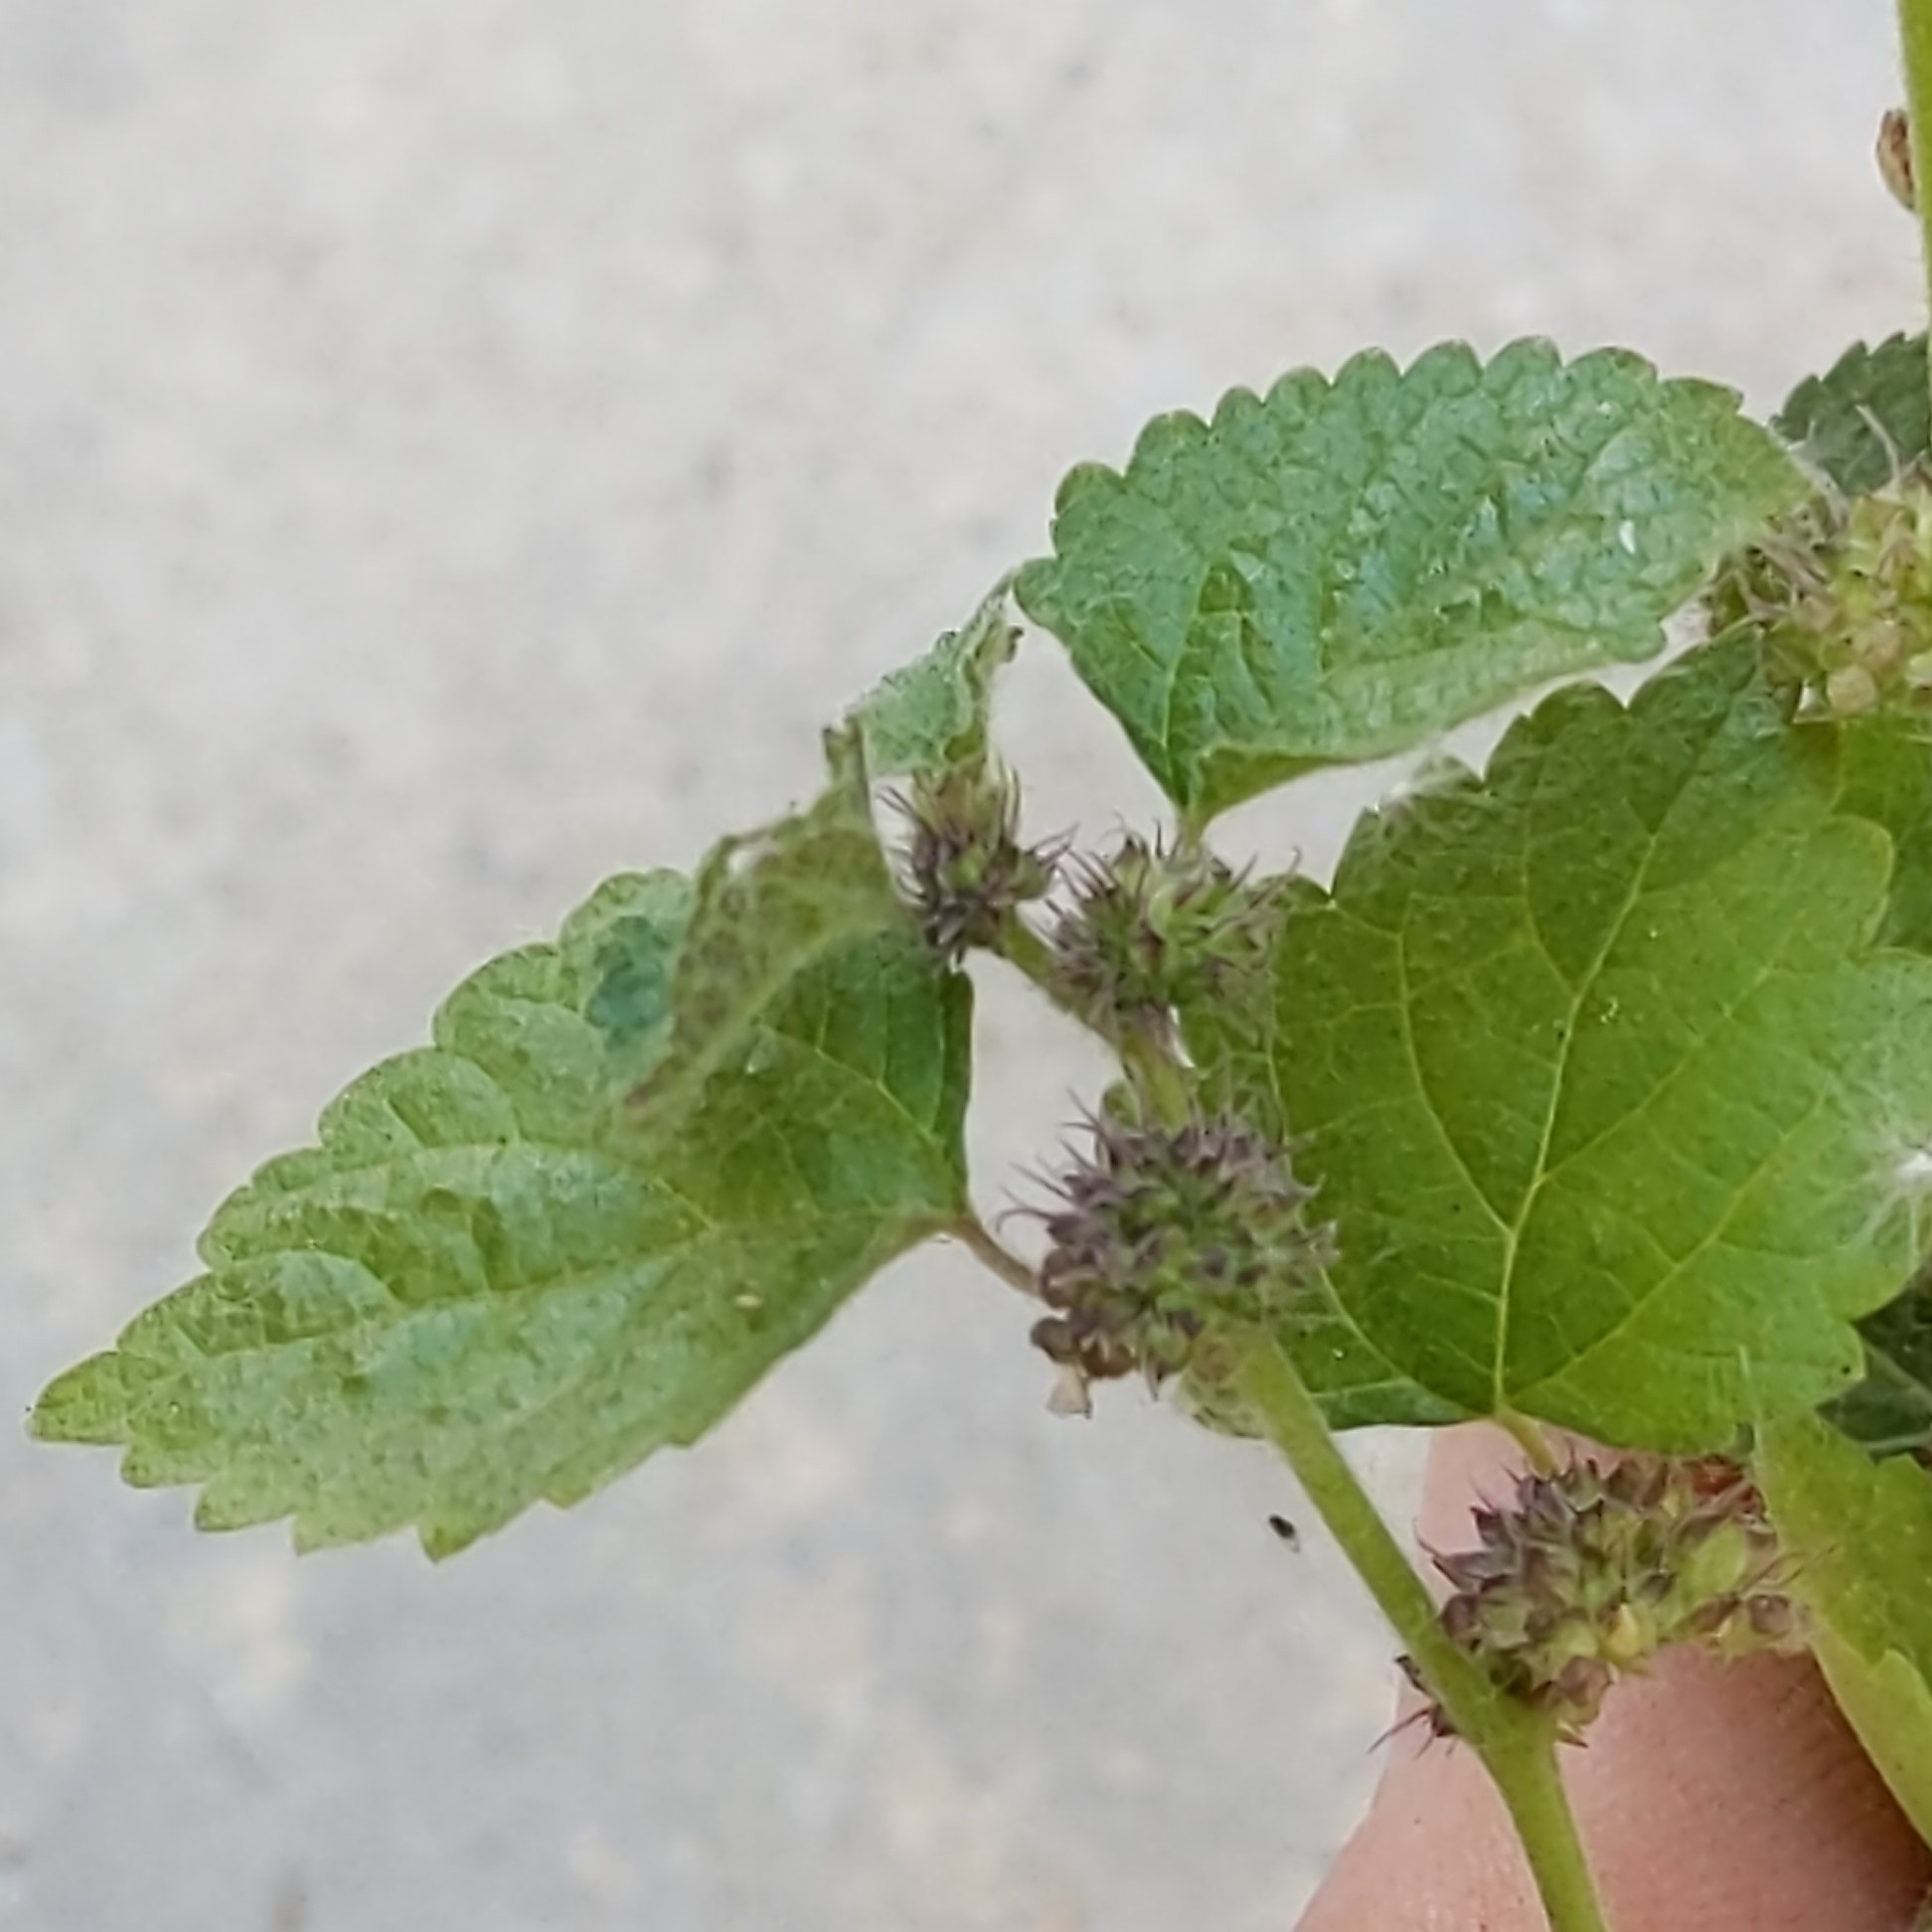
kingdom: Plantae
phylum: Tracheophyta
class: Magnoliopsida
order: Rosales
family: Moraceae
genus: Fatoua
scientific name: Fatoua villosa
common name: Hairy crabweed
